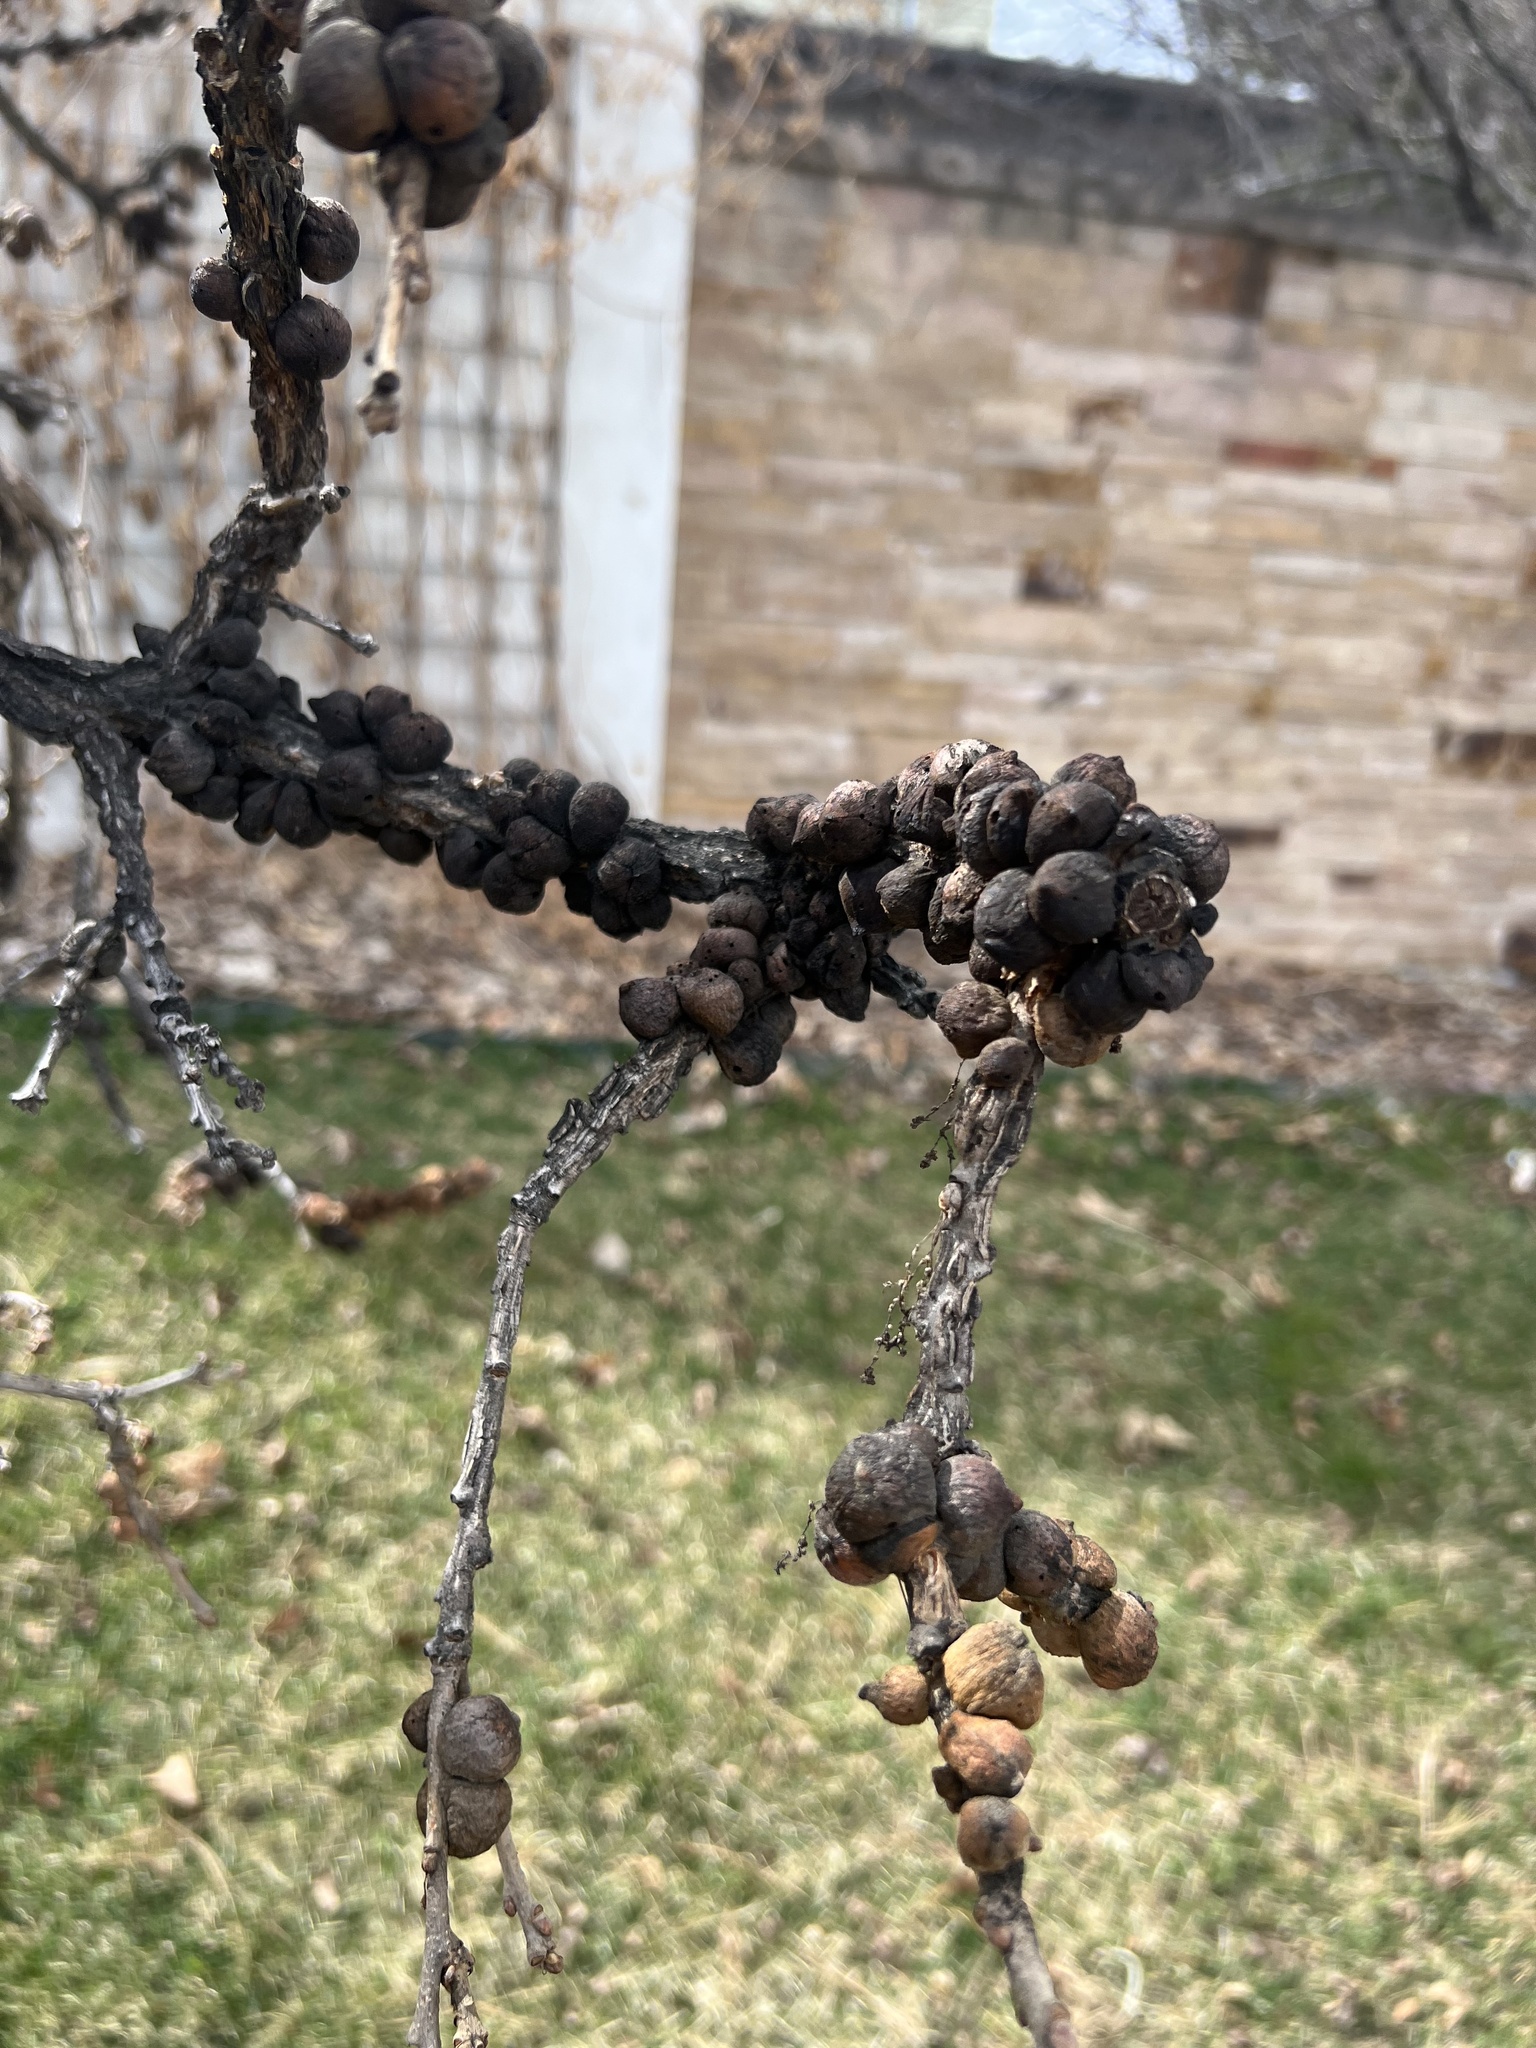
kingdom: Animalia
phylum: Arthropoda
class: Insecta
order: Hymenoptera
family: Cynipidae
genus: Disholcaspis
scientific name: Disholcaspis
